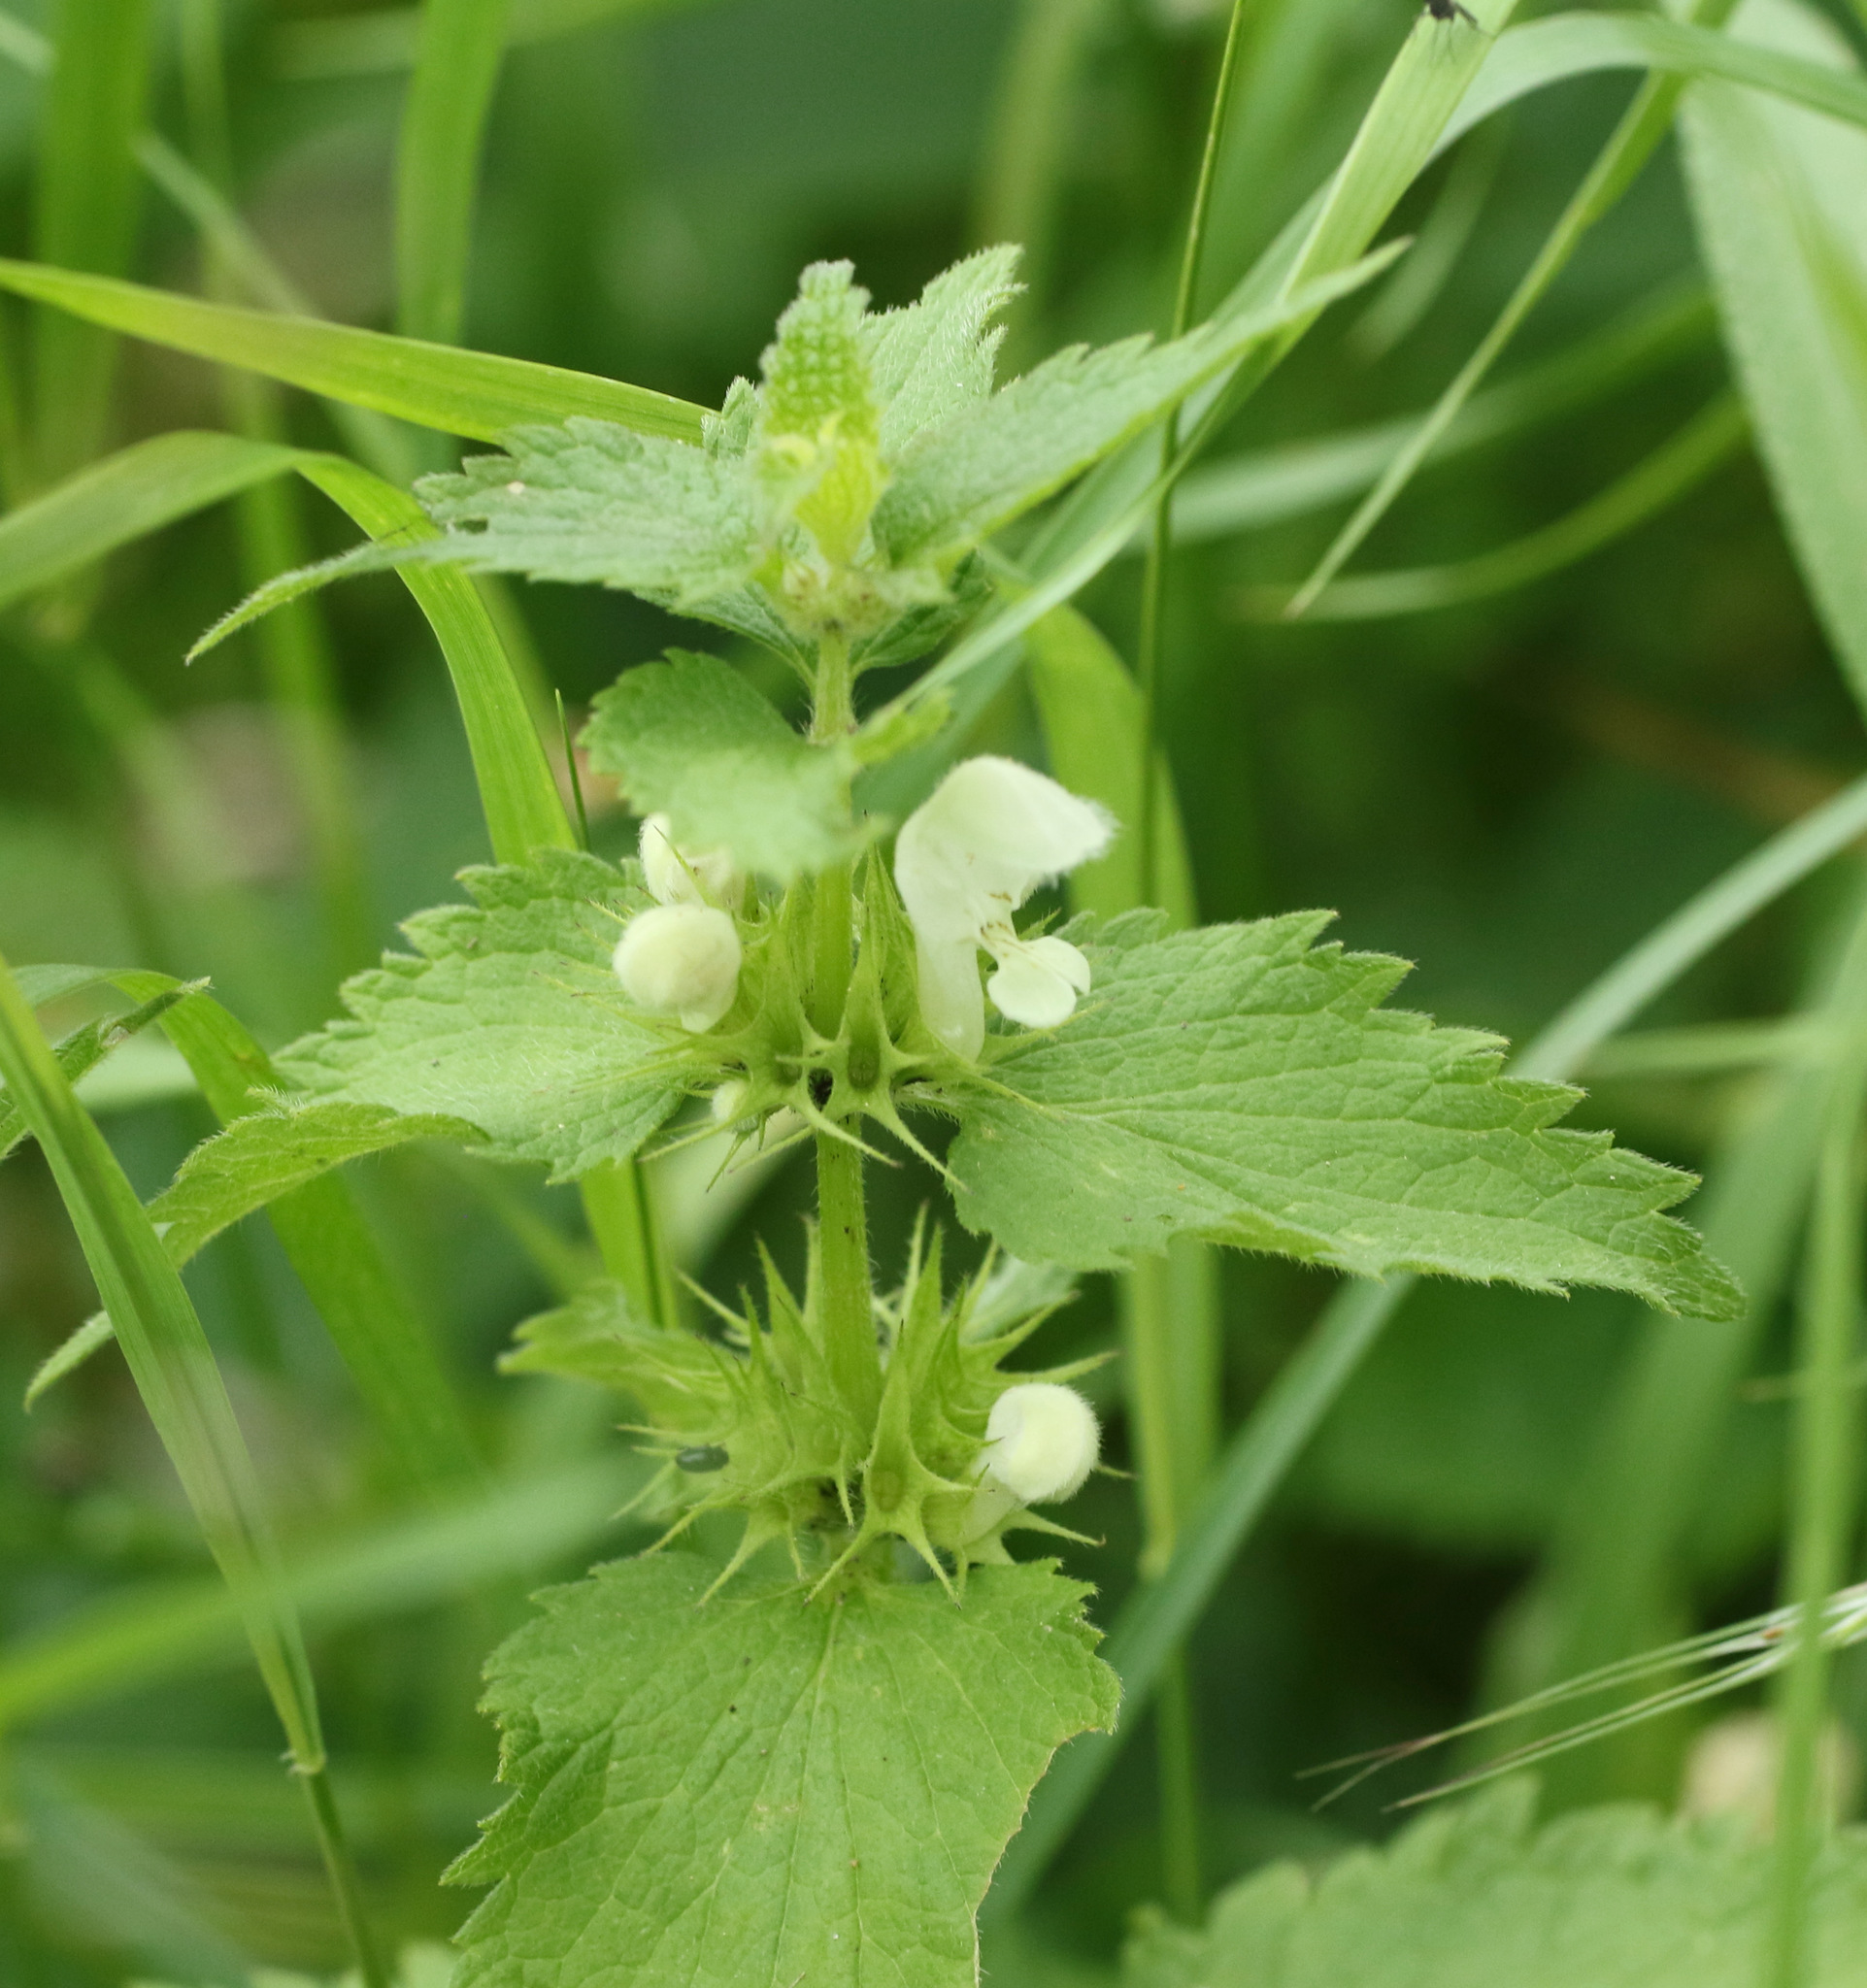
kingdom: Plantae
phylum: Tracheophyta
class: Magnoliopsida
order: Lamiales
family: Lamiaceae
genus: Lamium
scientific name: Lamium album
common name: White dead-nettle
